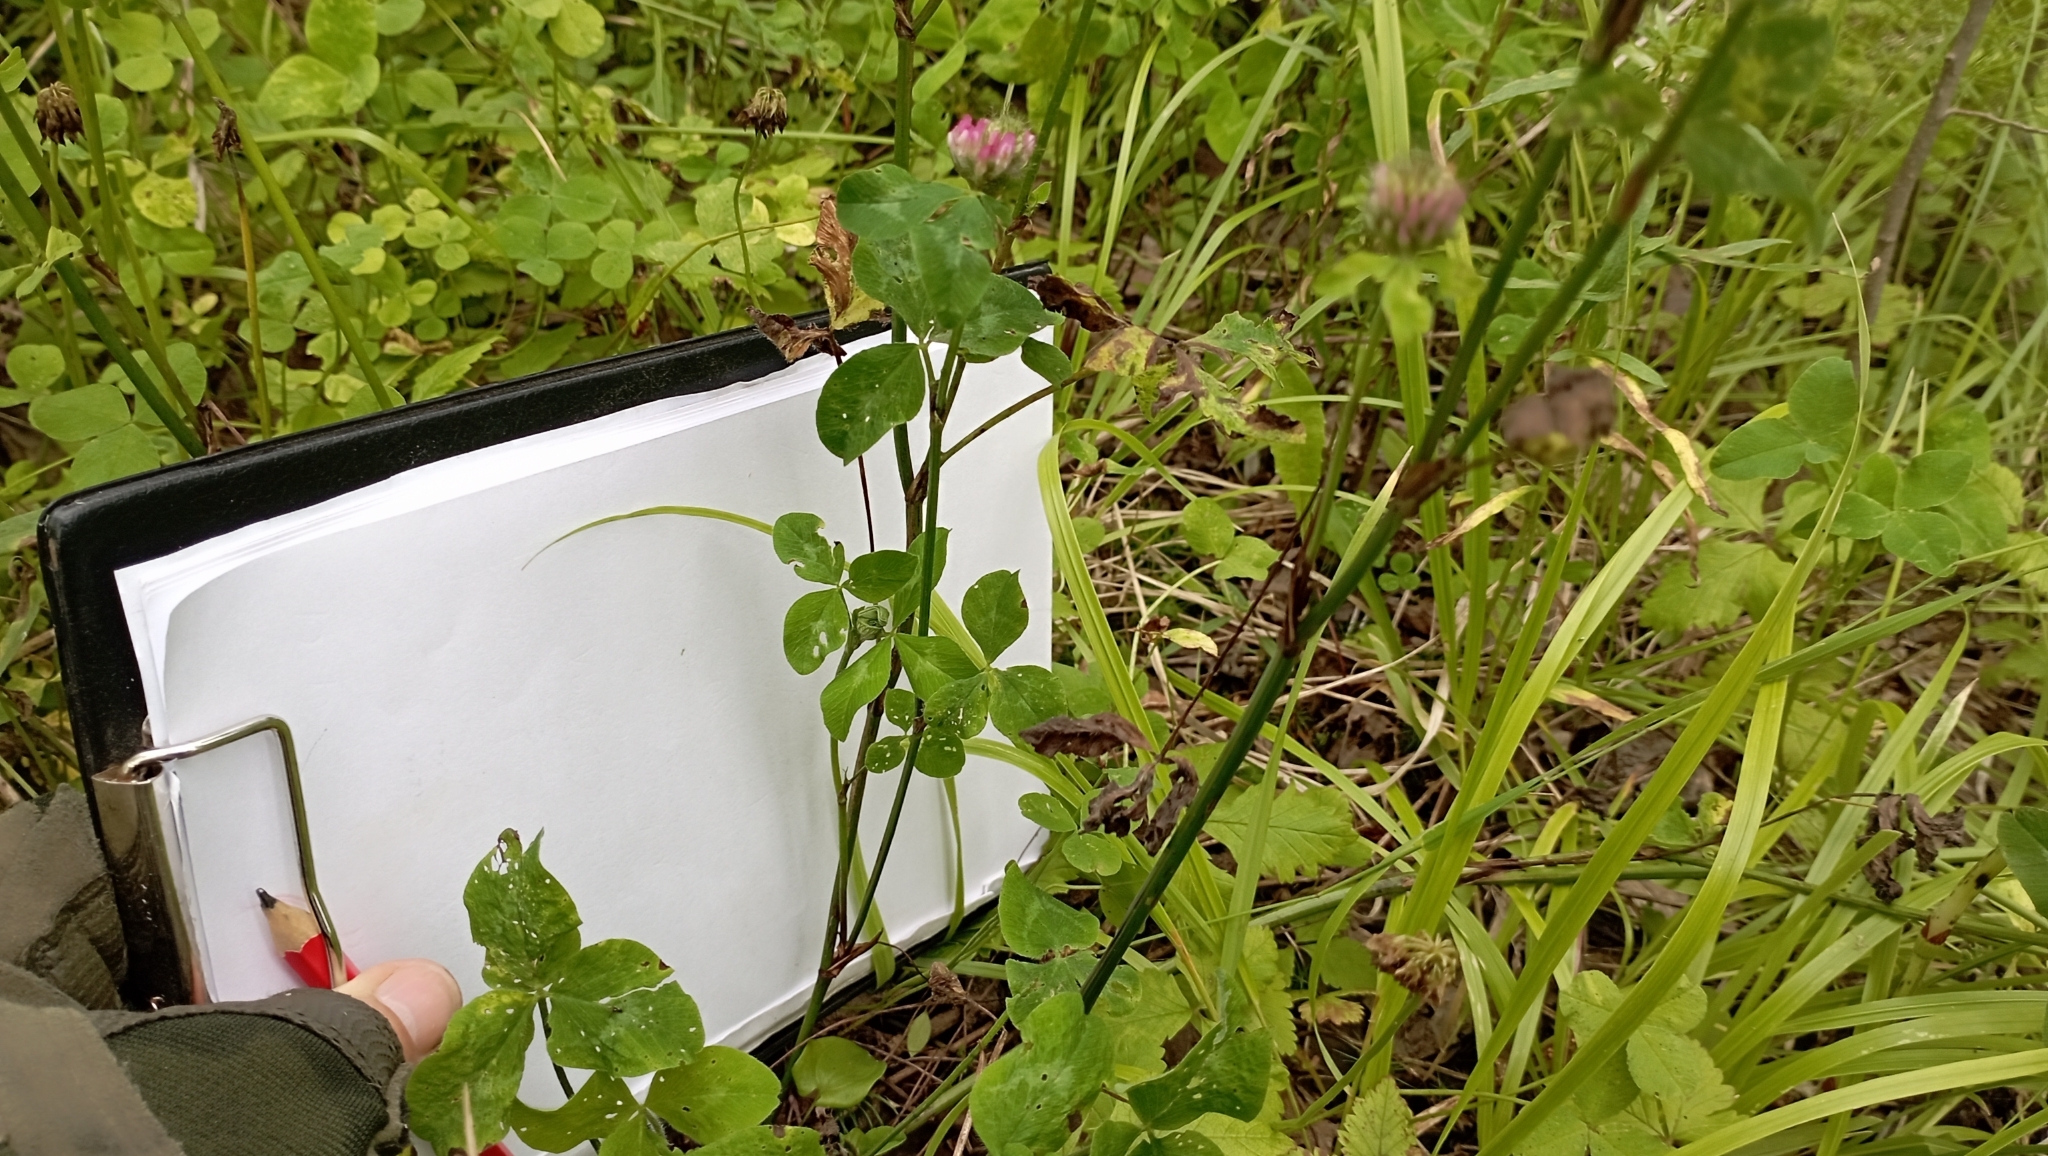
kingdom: Plantae
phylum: Tracheophyta
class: Magnoliopsida
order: Fabales
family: Fabaceae
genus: Trifolium
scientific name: Trifolium pratense
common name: Red clover
